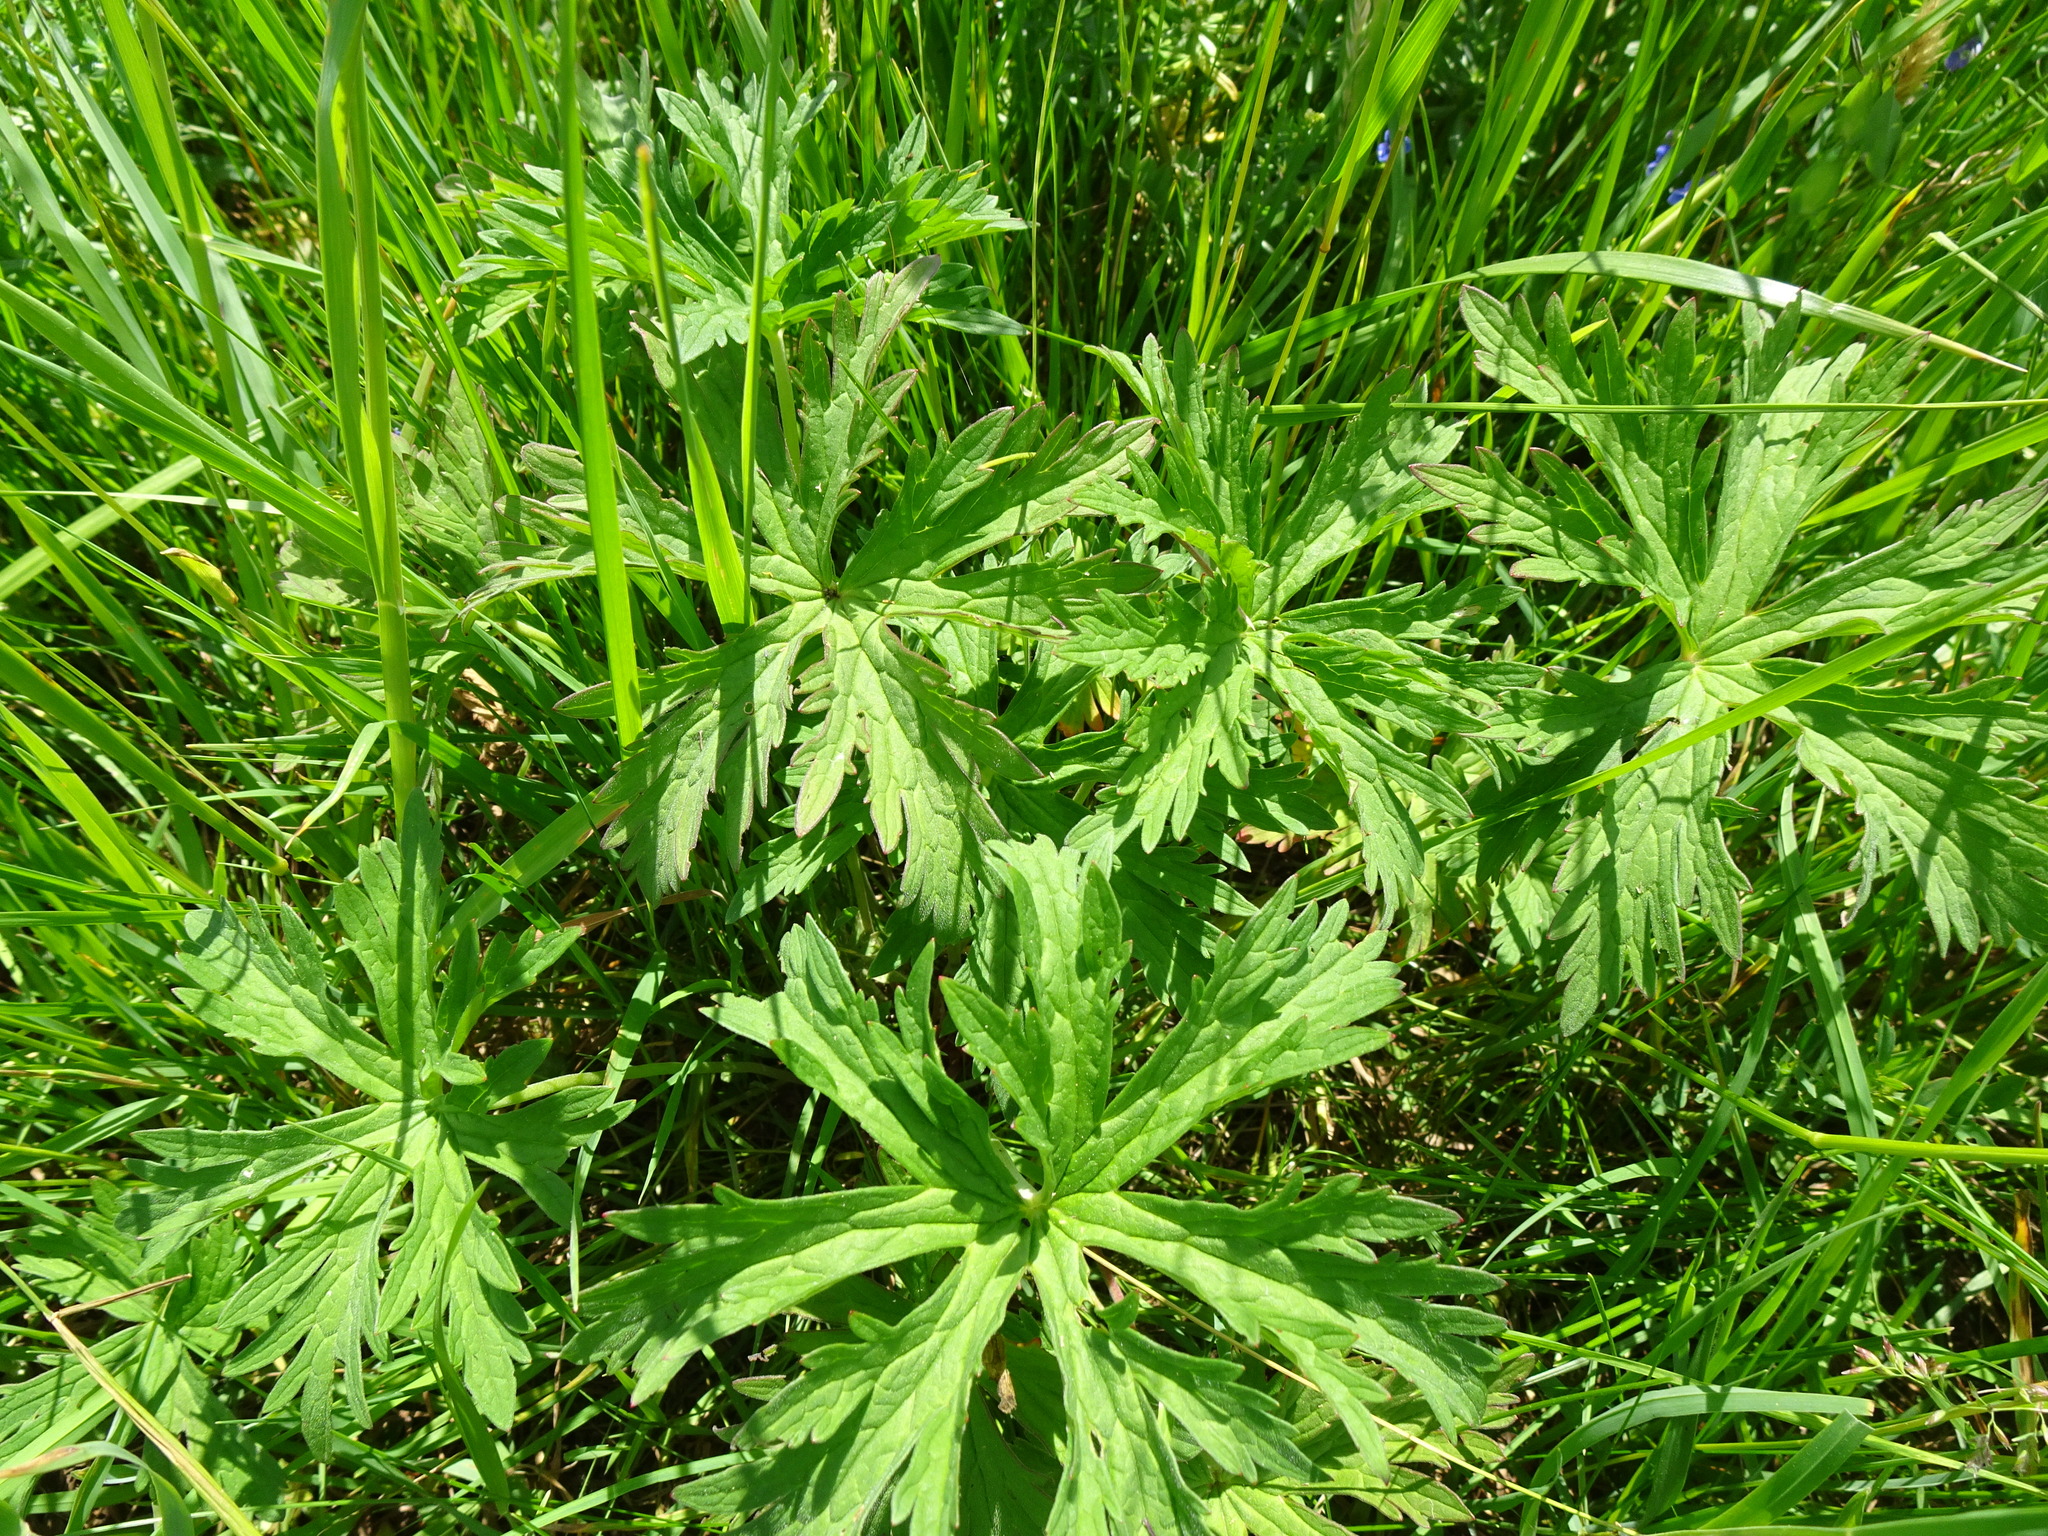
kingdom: Plantae
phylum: Tracheophyta
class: Magnoliopsida
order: Geraniales
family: Geraniaceae
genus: Geranium
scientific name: Geranium pratense
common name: Meadow crane's-bill
